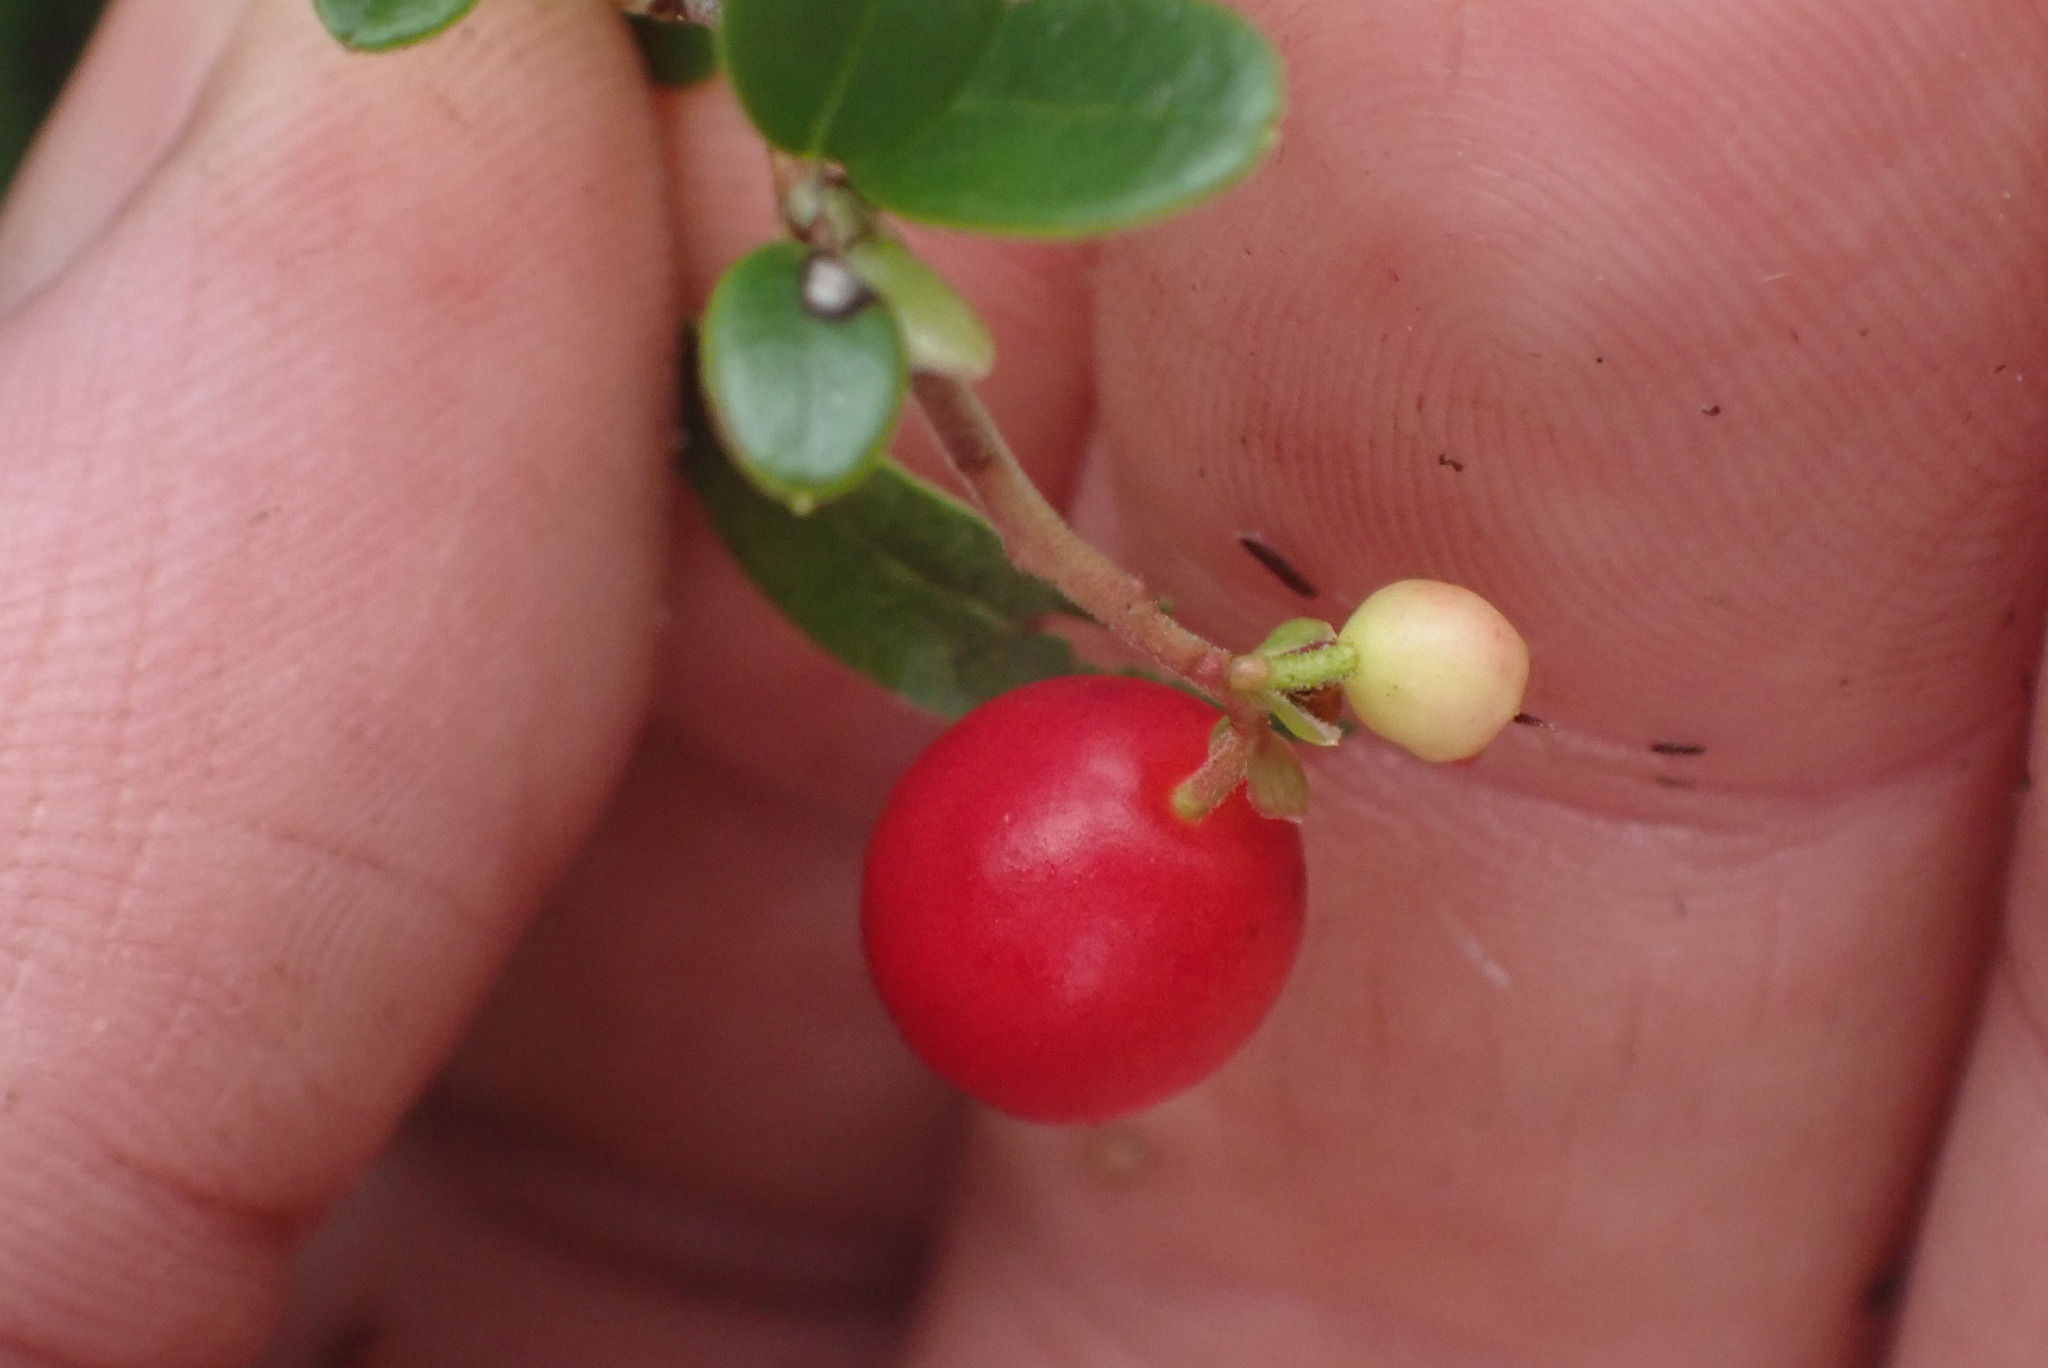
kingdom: Plantae
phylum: Tracheophyta
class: Magnoliopsida
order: Ericales
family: Ericaceae
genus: Vaccinium
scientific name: Vaccinium vitis-idaea
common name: Cowberry
